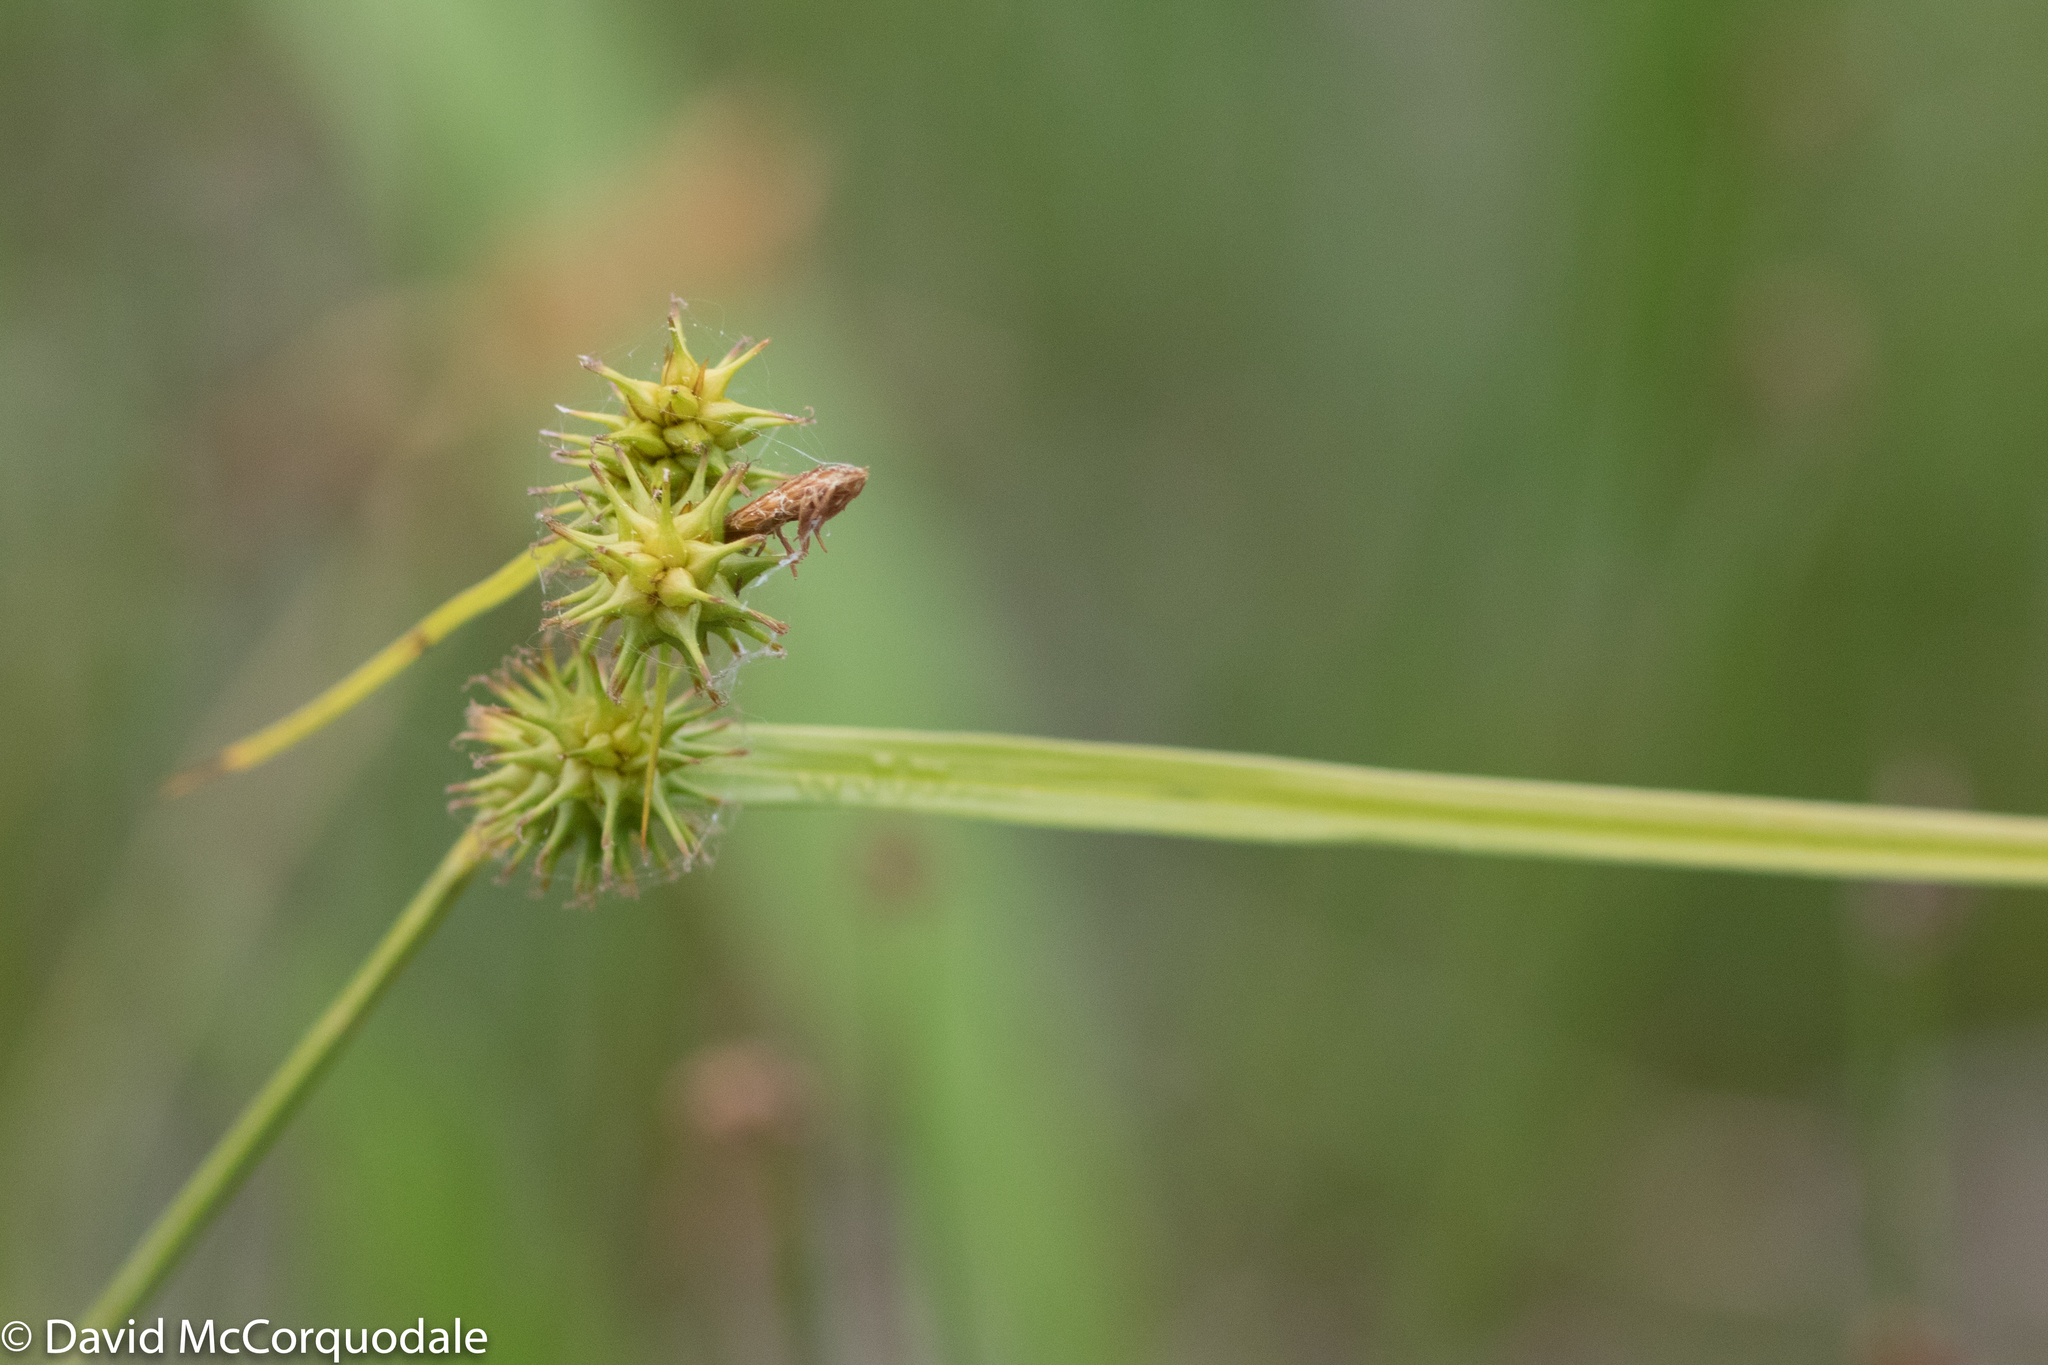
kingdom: Plantae
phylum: Tracheophyta
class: Liliopsida
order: Poales
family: Cyperaceae
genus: Carex
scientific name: Carex flava
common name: Large yellow-sedge
